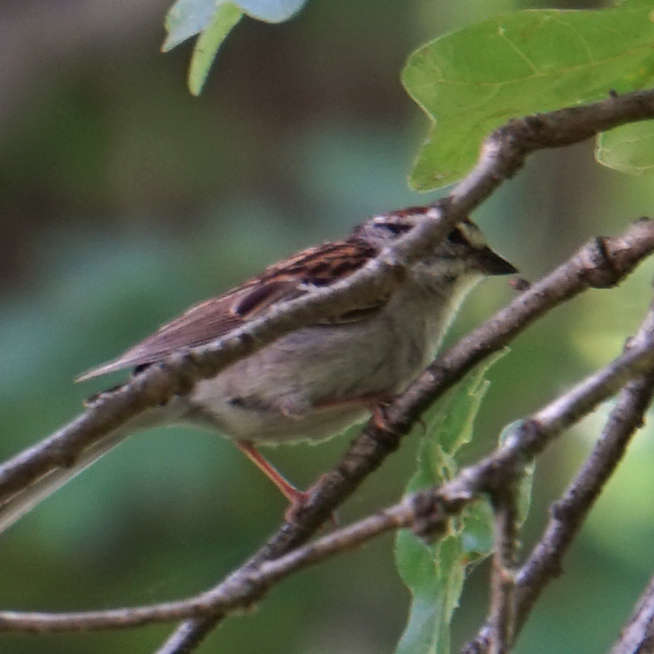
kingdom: Animalia
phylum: Chordata
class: Aves
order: Passeriformes
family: Passerellidae
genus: Spizella
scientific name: Spizella passerina
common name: Chipping sparrow
